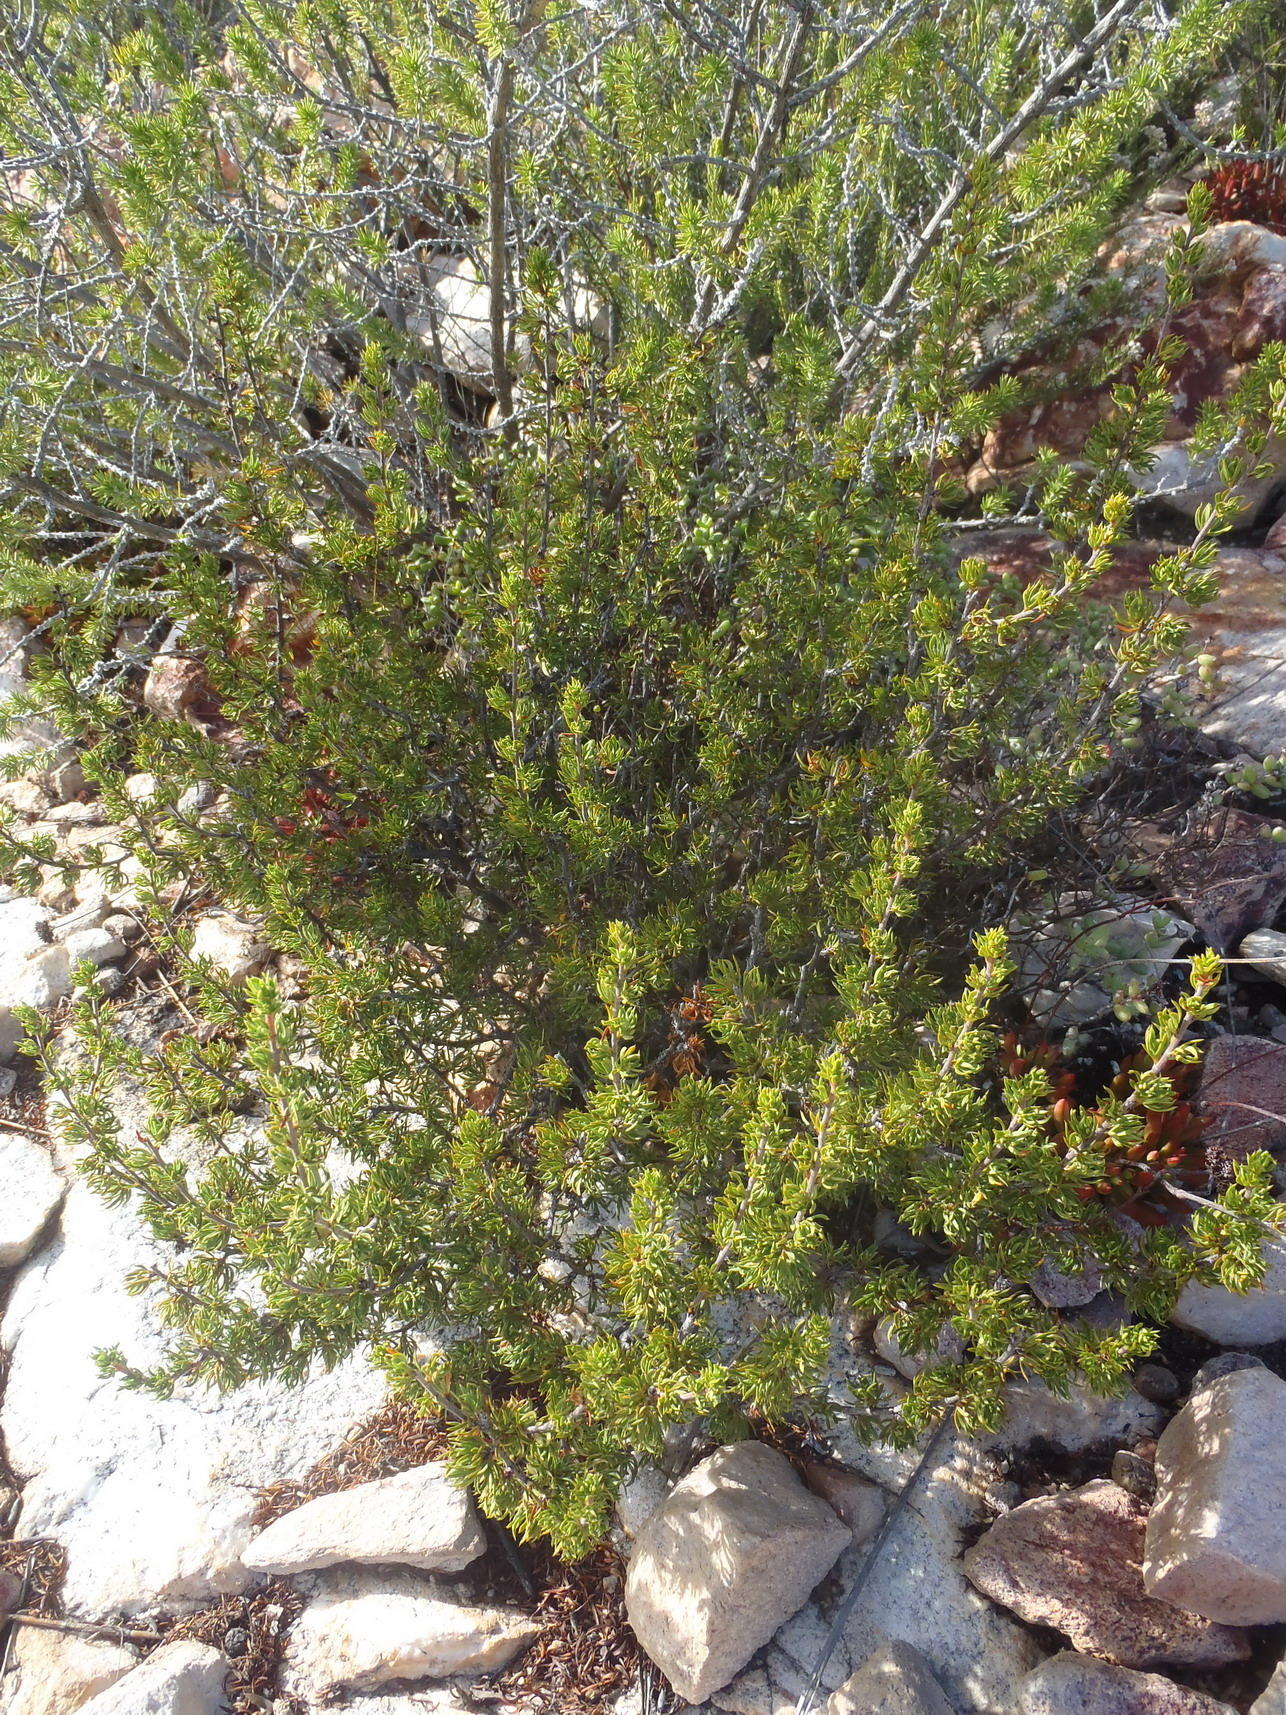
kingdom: Plantae
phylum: Tracheophyta
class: Magnoliopsida
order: Rosales
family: Rosaceae
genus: Cliffortia
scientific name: Cliffortia arcuata
